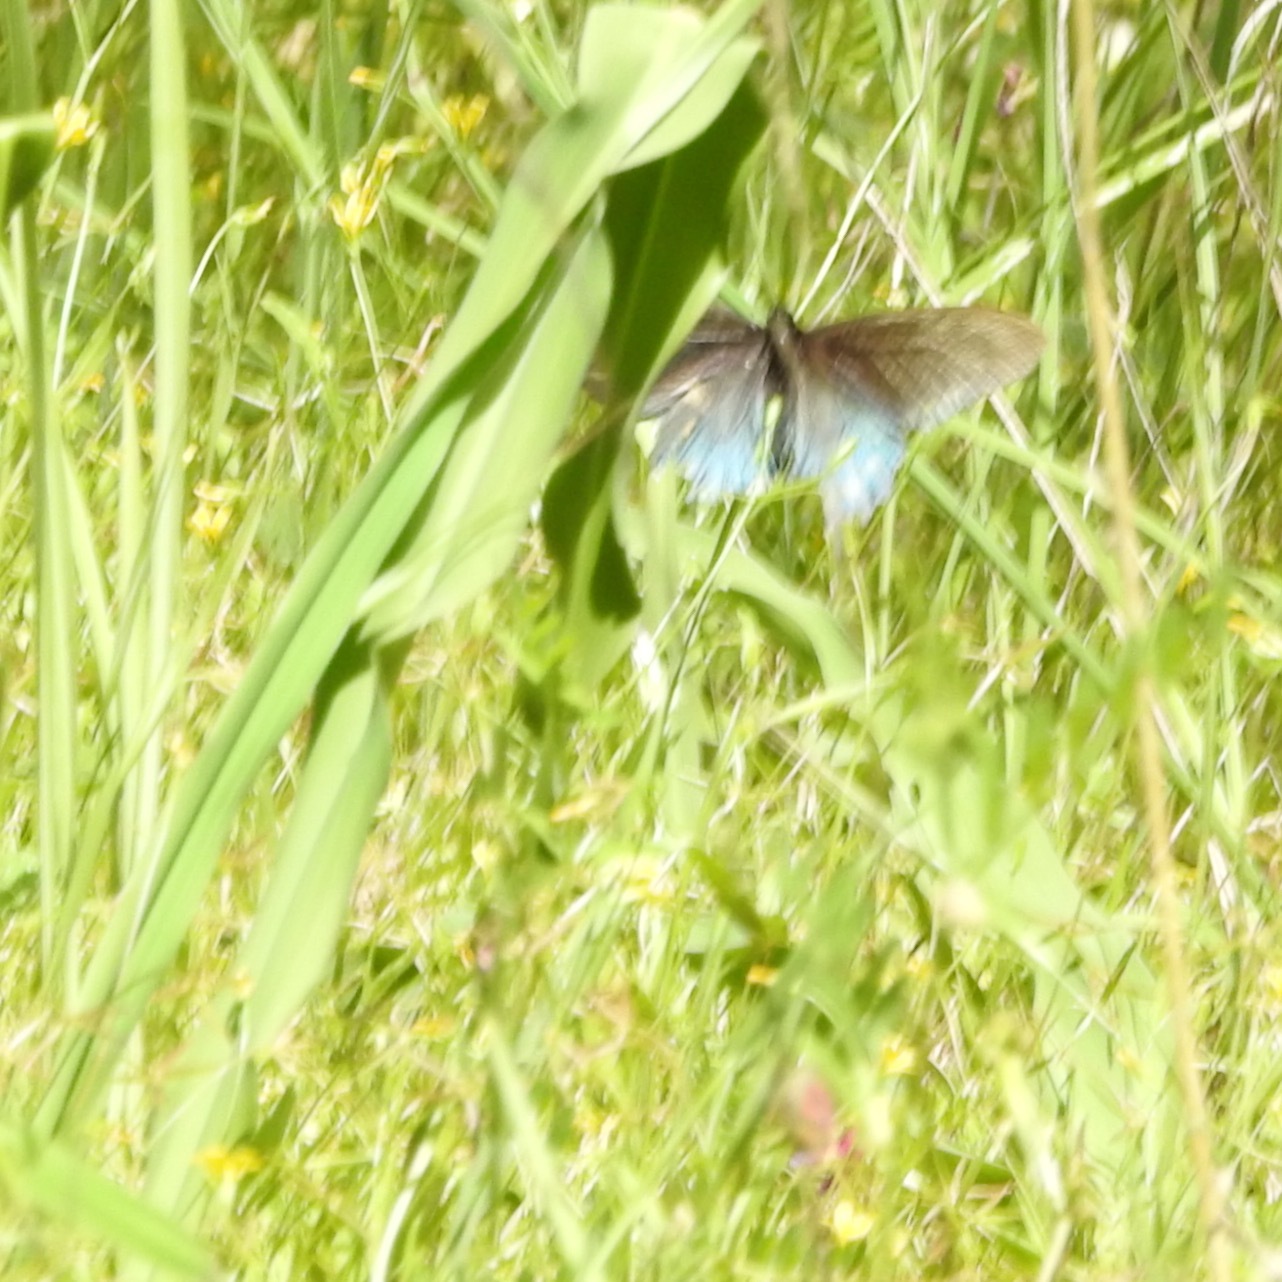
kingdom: Plantae
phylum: Tracheophyta
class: Liliopsida
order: Asparagales
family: Asparagaceae
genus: Chlorogalum
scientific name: Chlorogalum pomeridianum
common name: Amole
